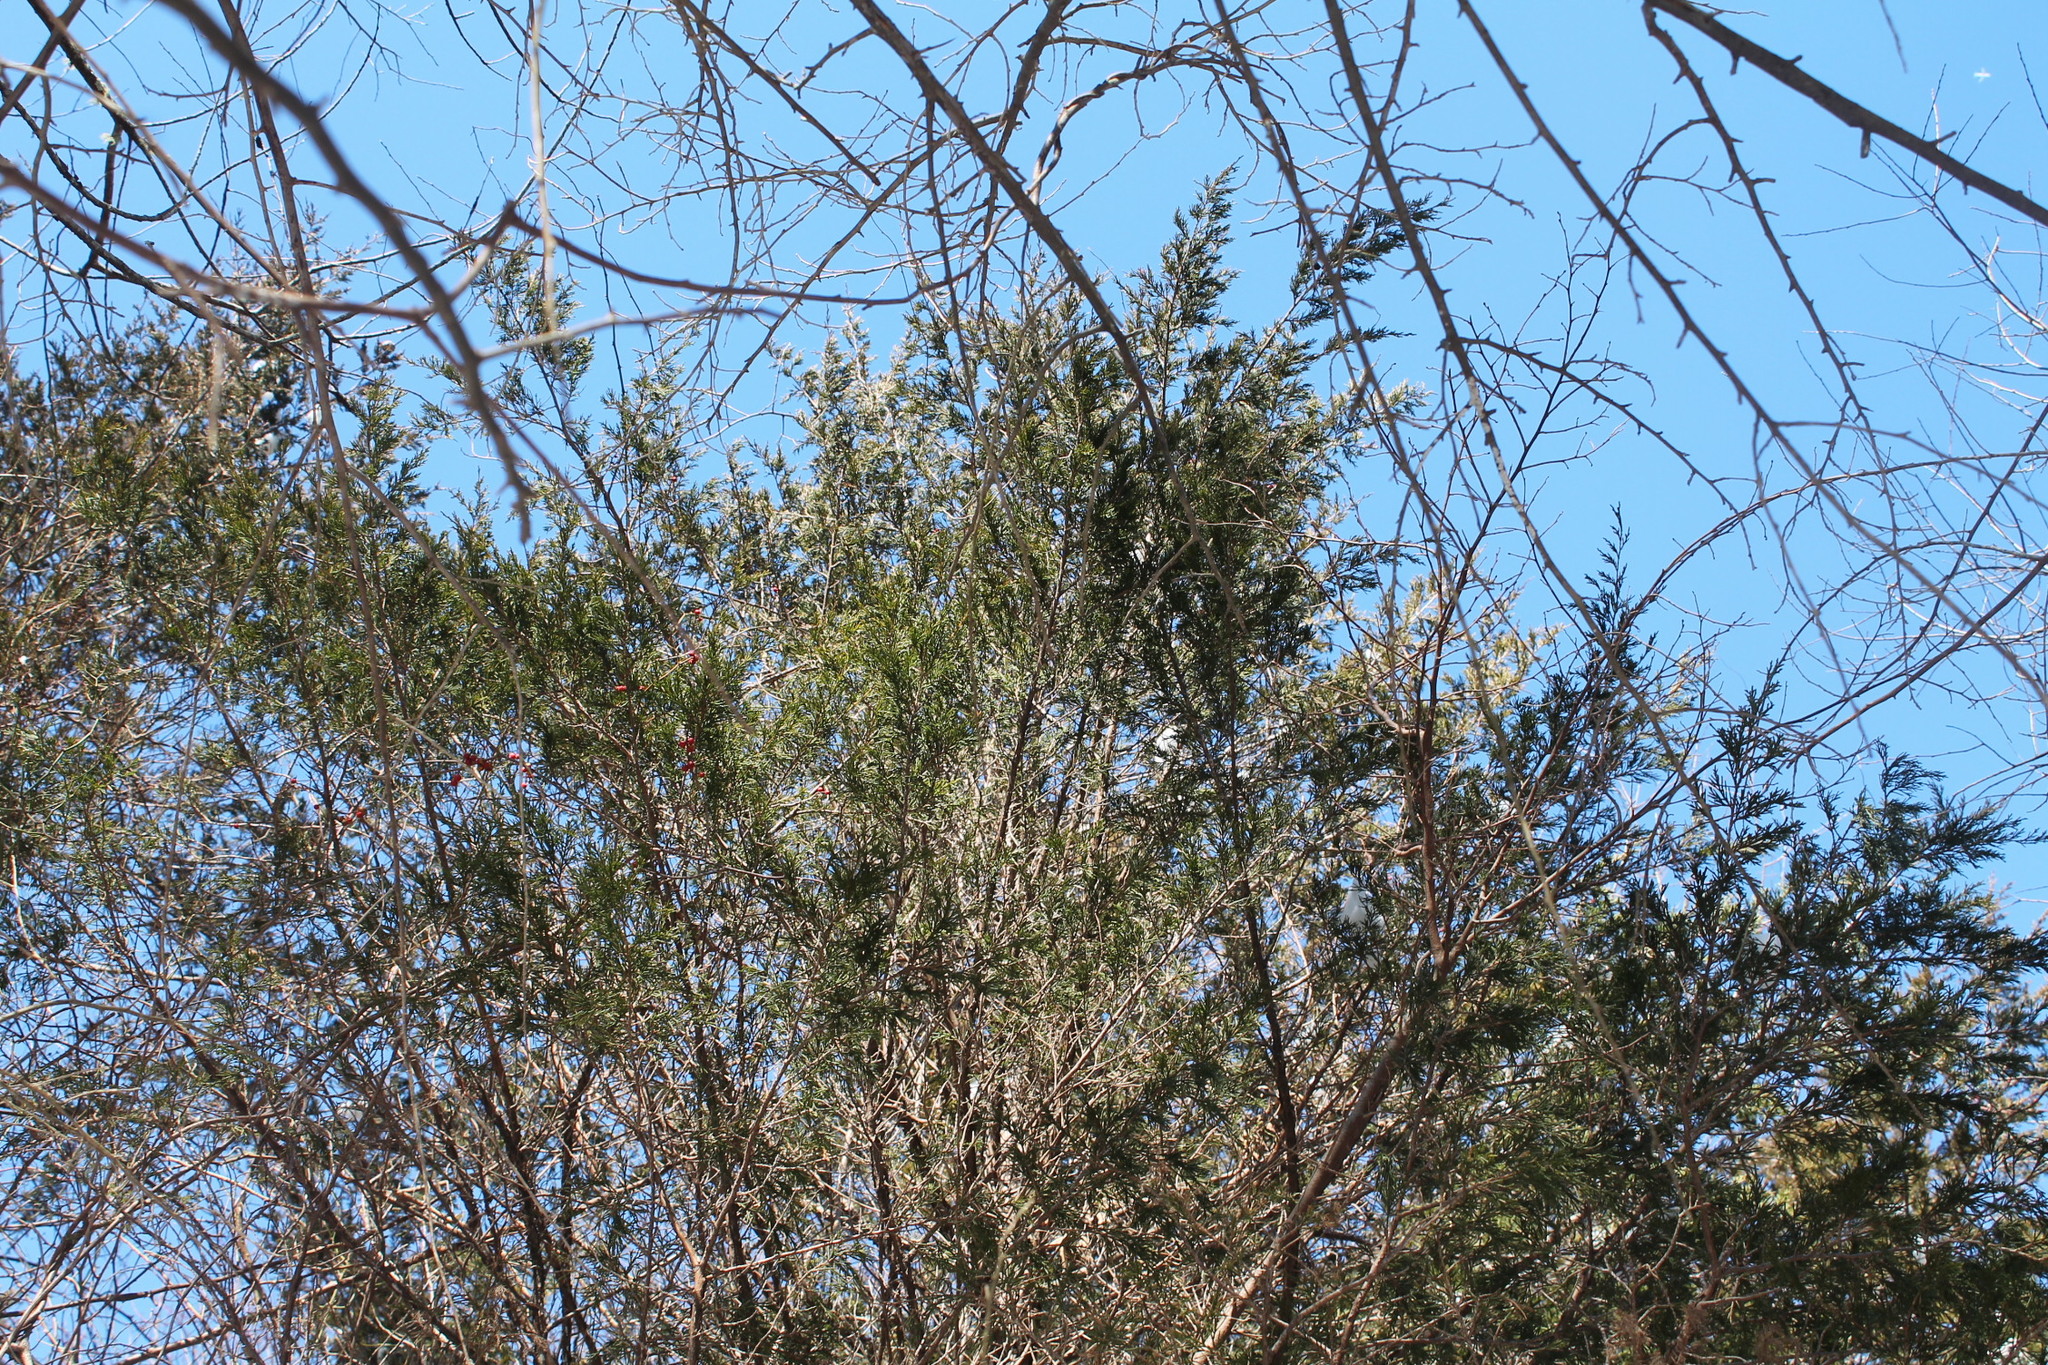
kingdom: Plantae
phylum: Tracheophyta
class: Pinopsida
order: Pinales
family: Cupressaceae
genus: Juniperus
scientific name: Juniperus virginiana
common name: Red juniper
